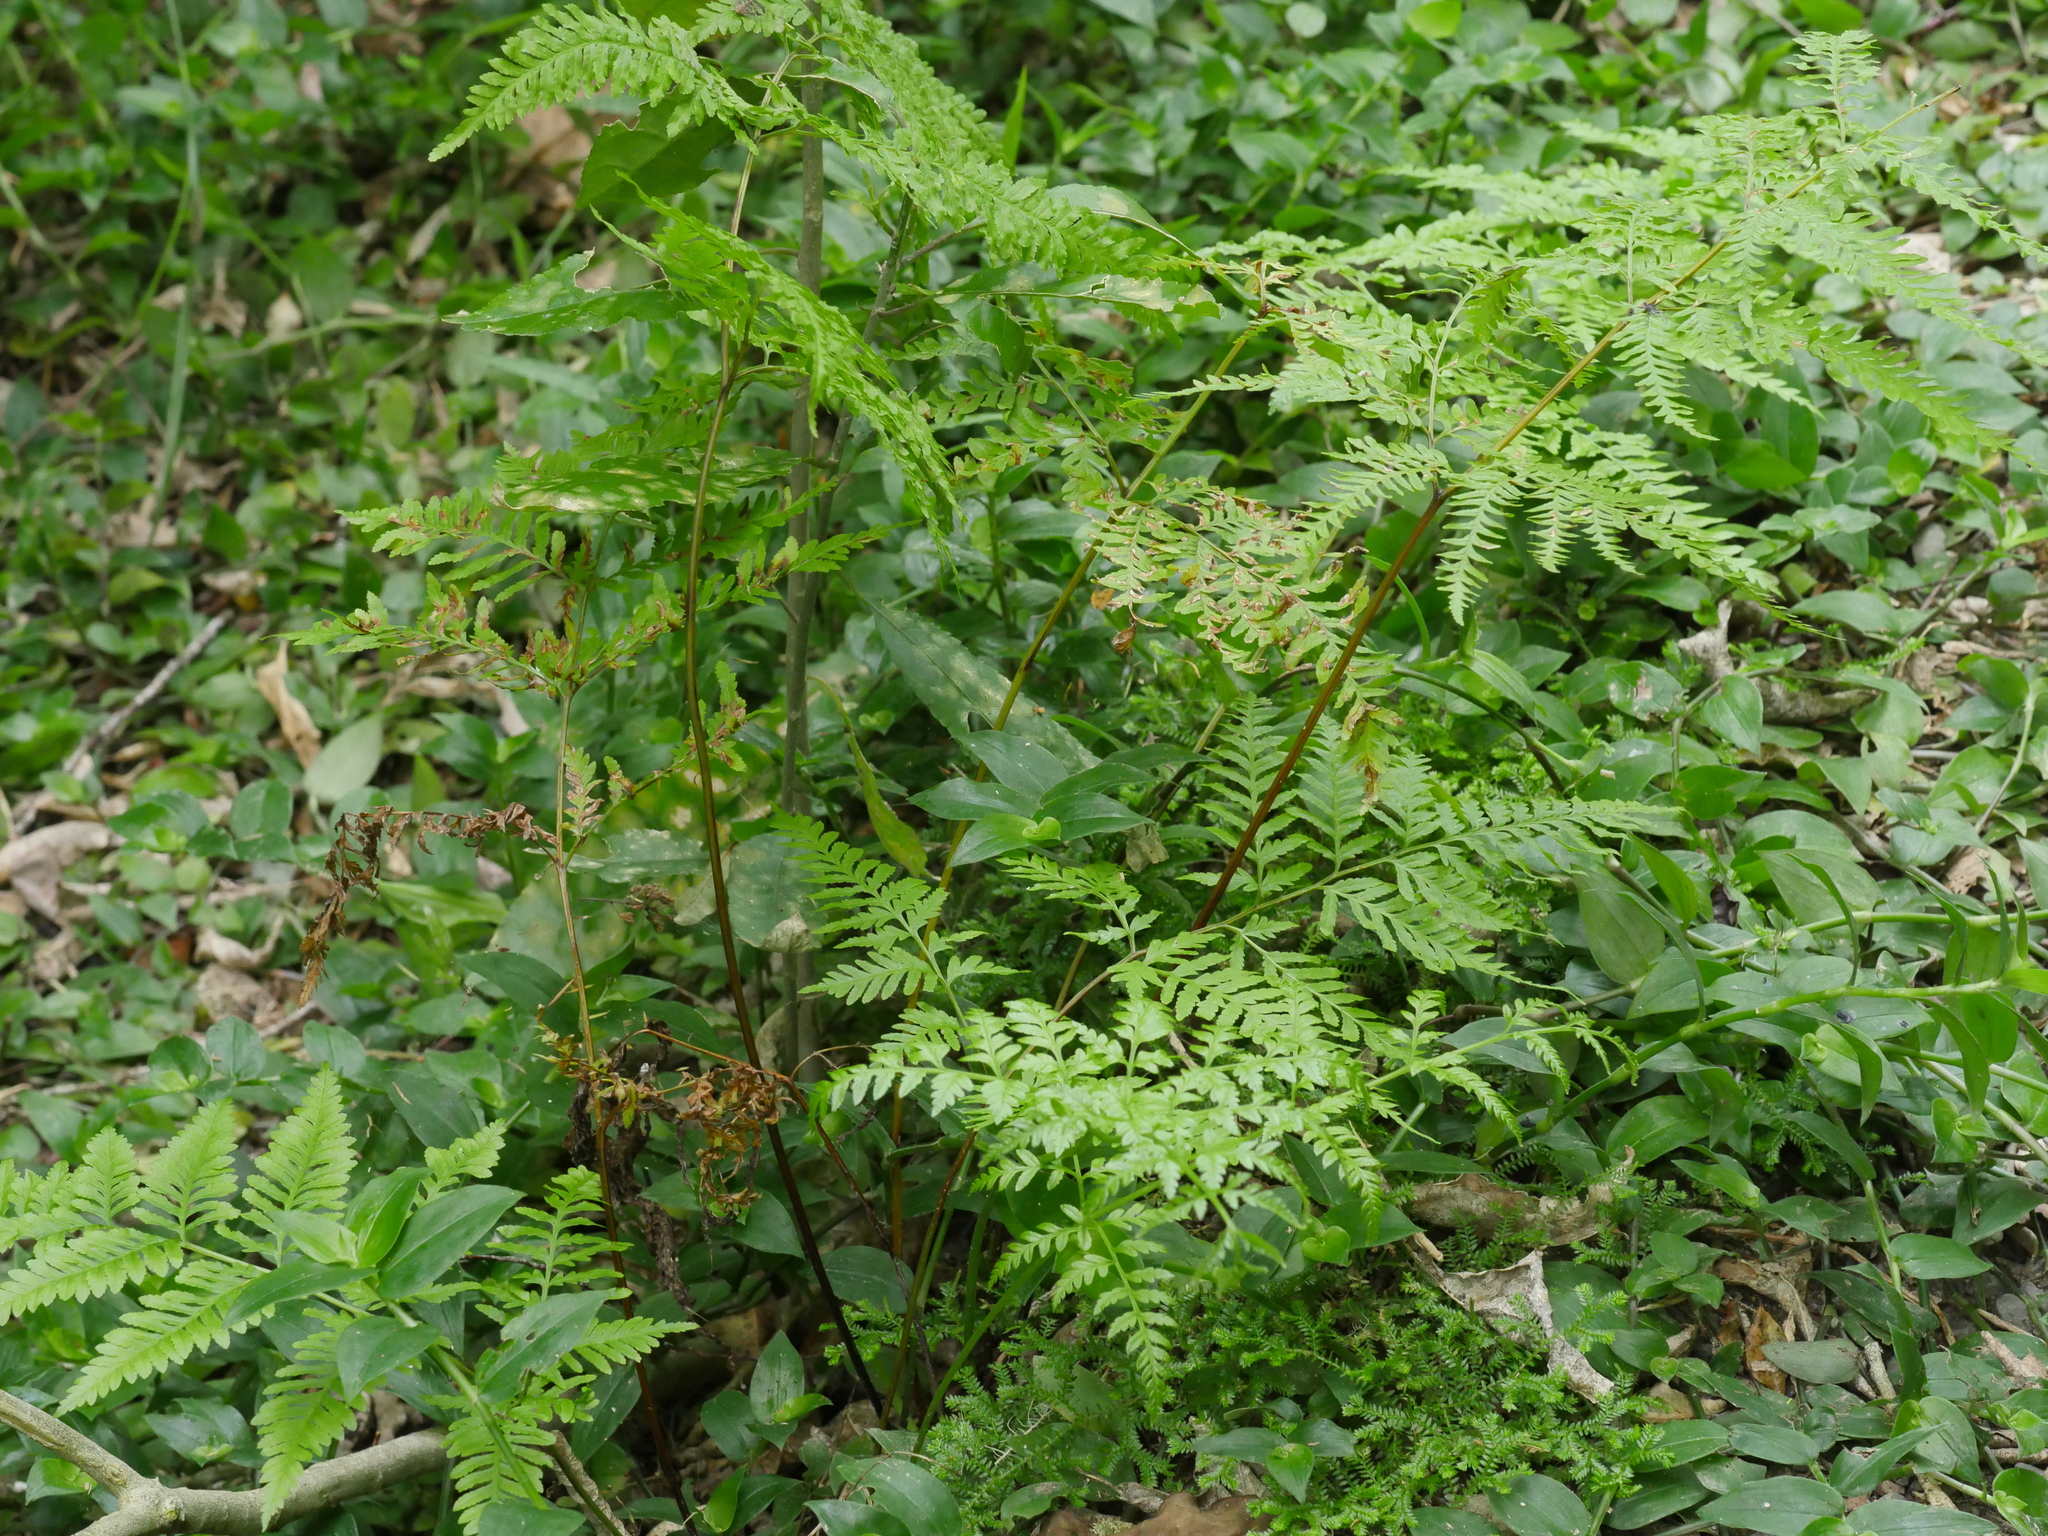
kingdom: Plantae
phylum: Tracheophyta
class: Polypodiopsida
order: Polypodiales
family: Pteridaceae
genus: Pteris
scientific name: Pteris tremula
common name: Australian brake
